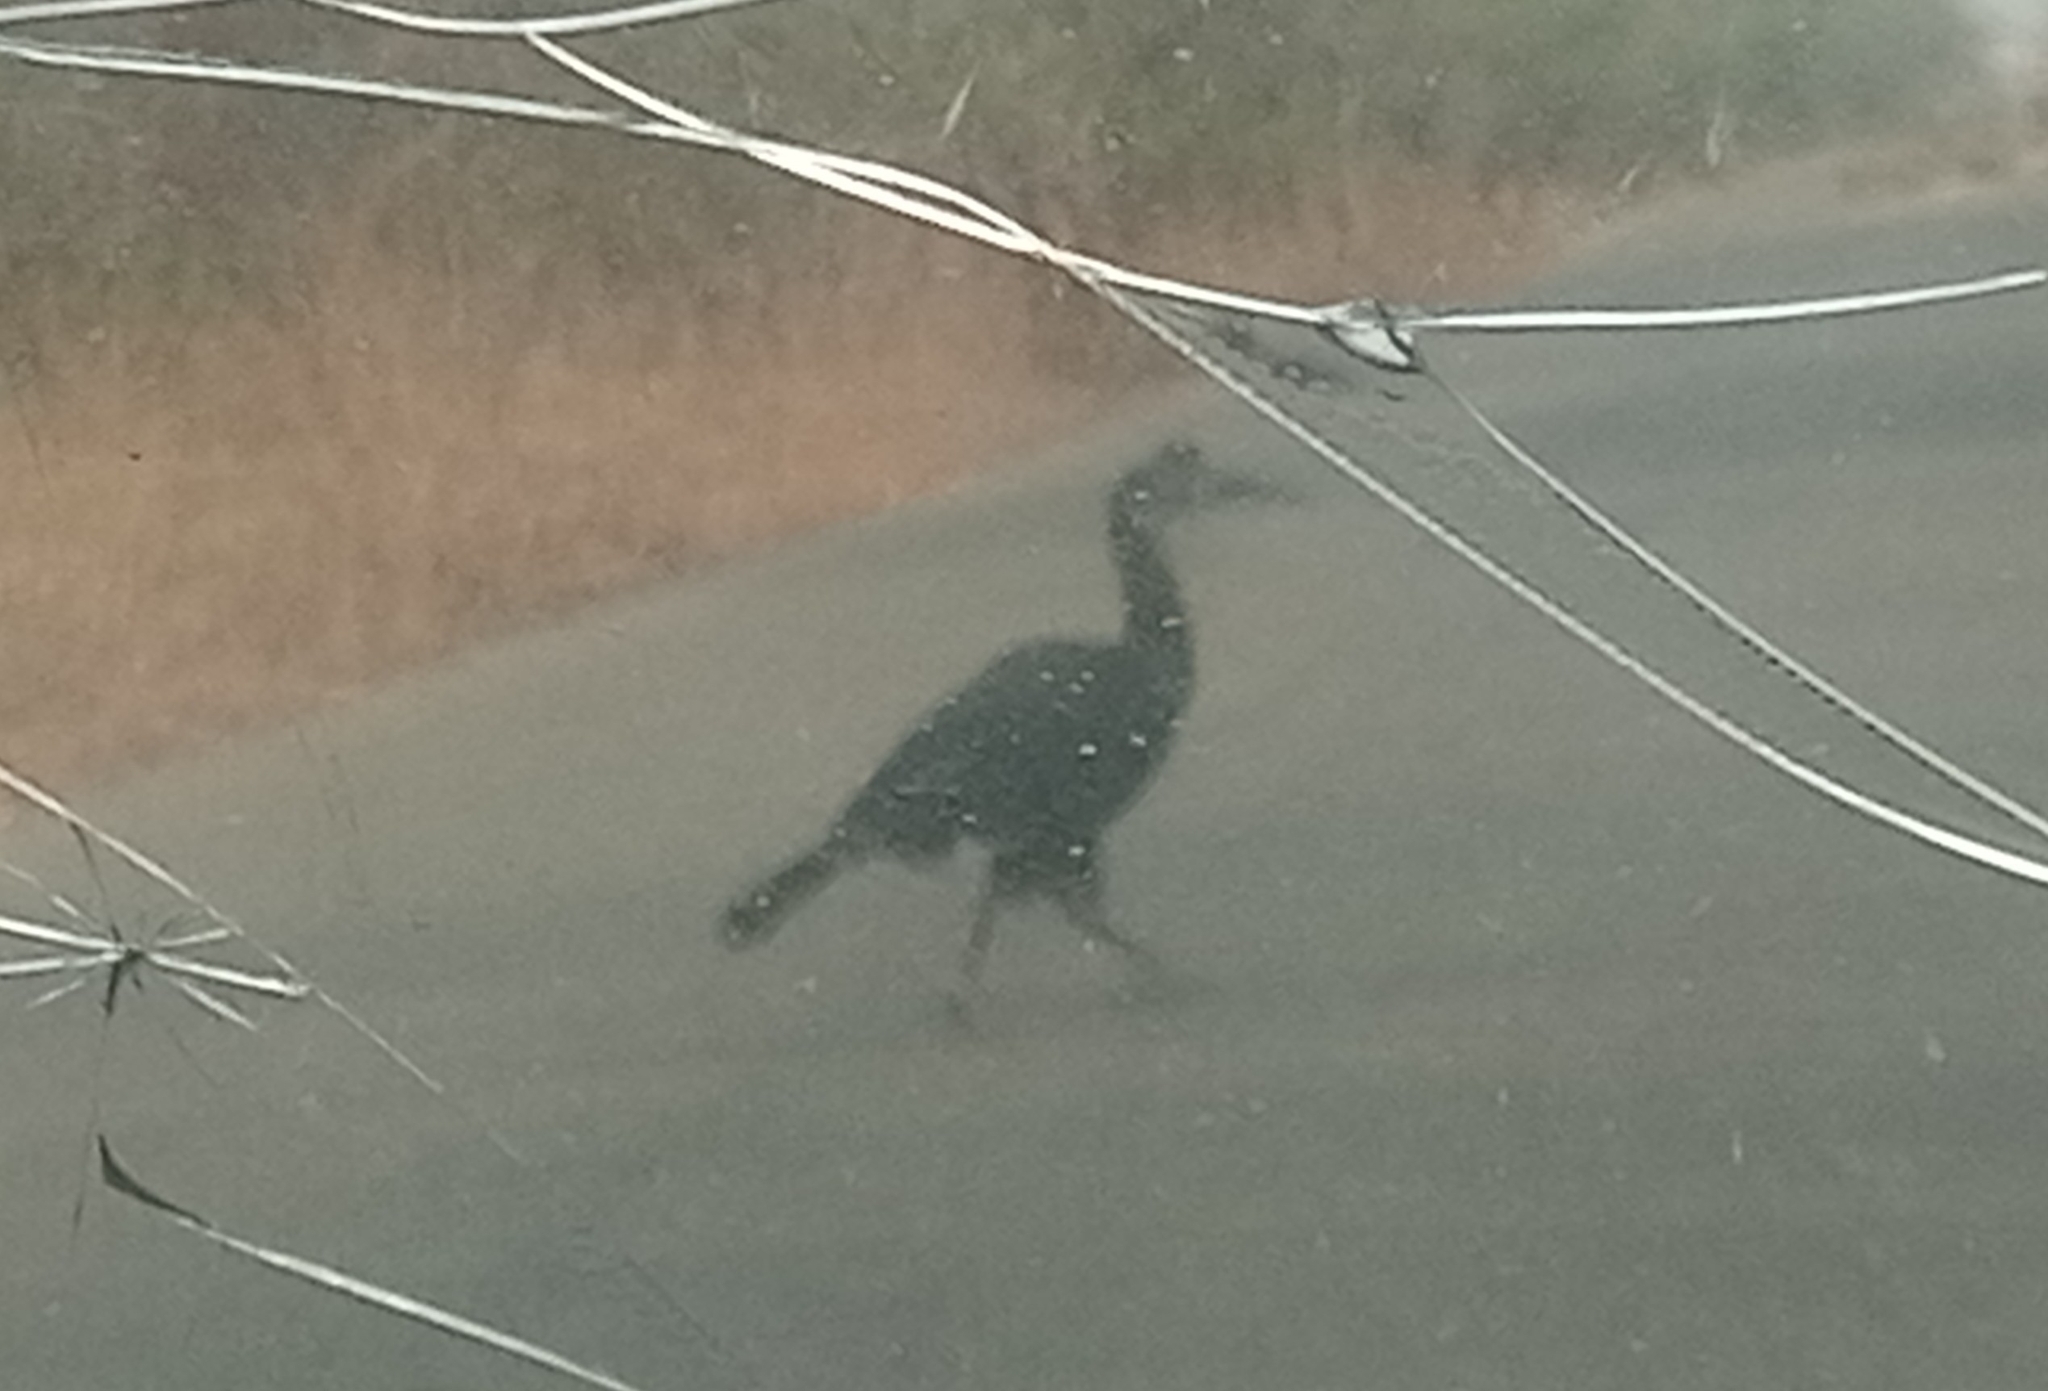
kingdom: Animalia
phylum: Chordata
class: Aves
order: Bucerotiformes
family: Bucorvidae
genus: Bucorvus
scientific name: Bucorvus abyssinicus
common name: Abyssinian ground hornbill
